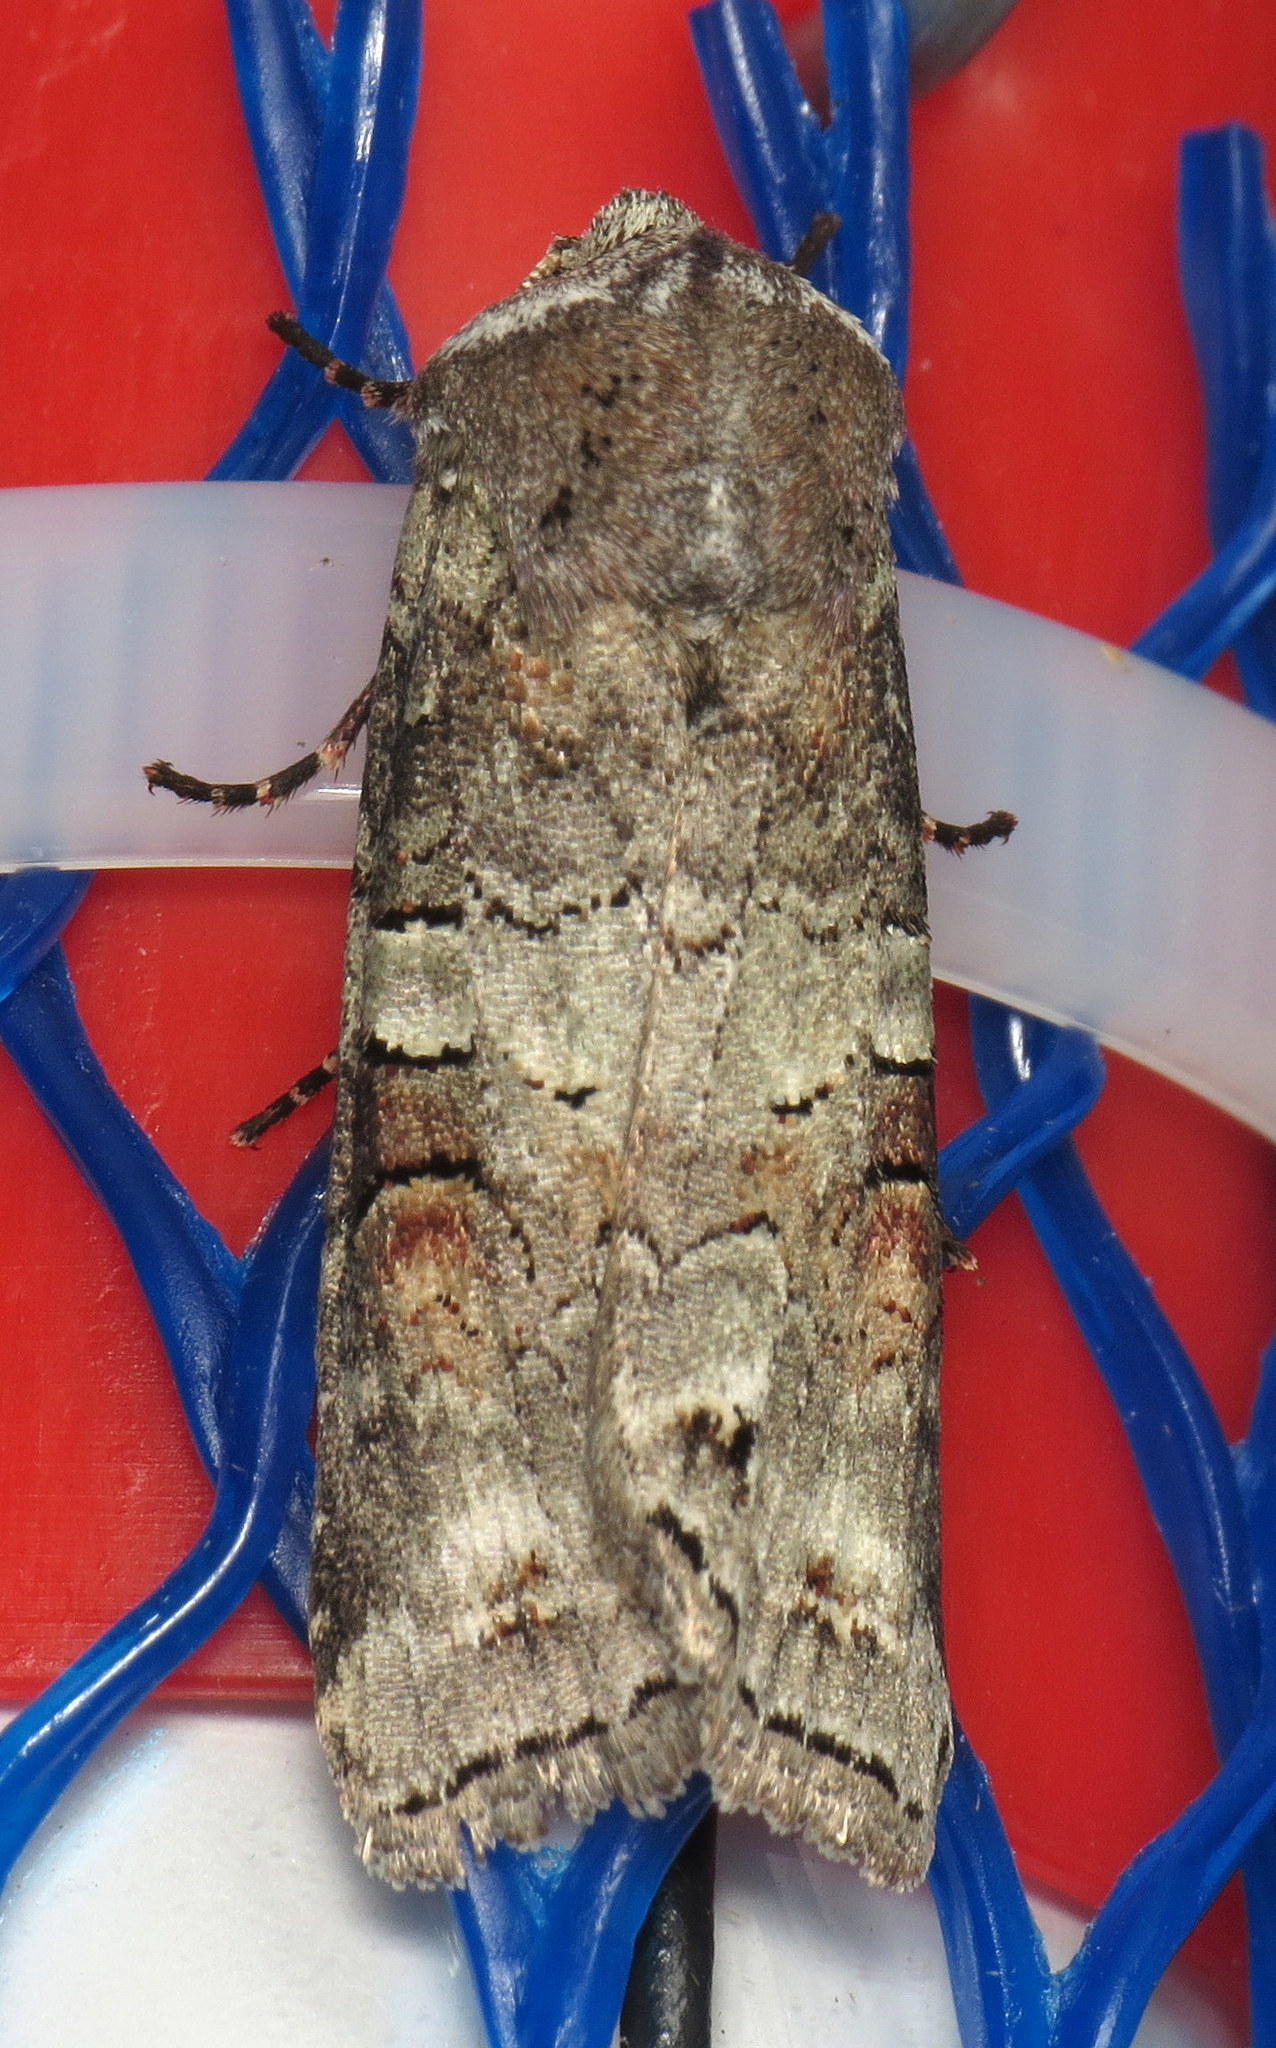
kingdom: Animalia
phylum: Arthropoda
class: Insecta
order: Lepidoptera
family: Noctuidae
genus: Egira
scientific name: Egira alternans
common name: Alternate woodling
